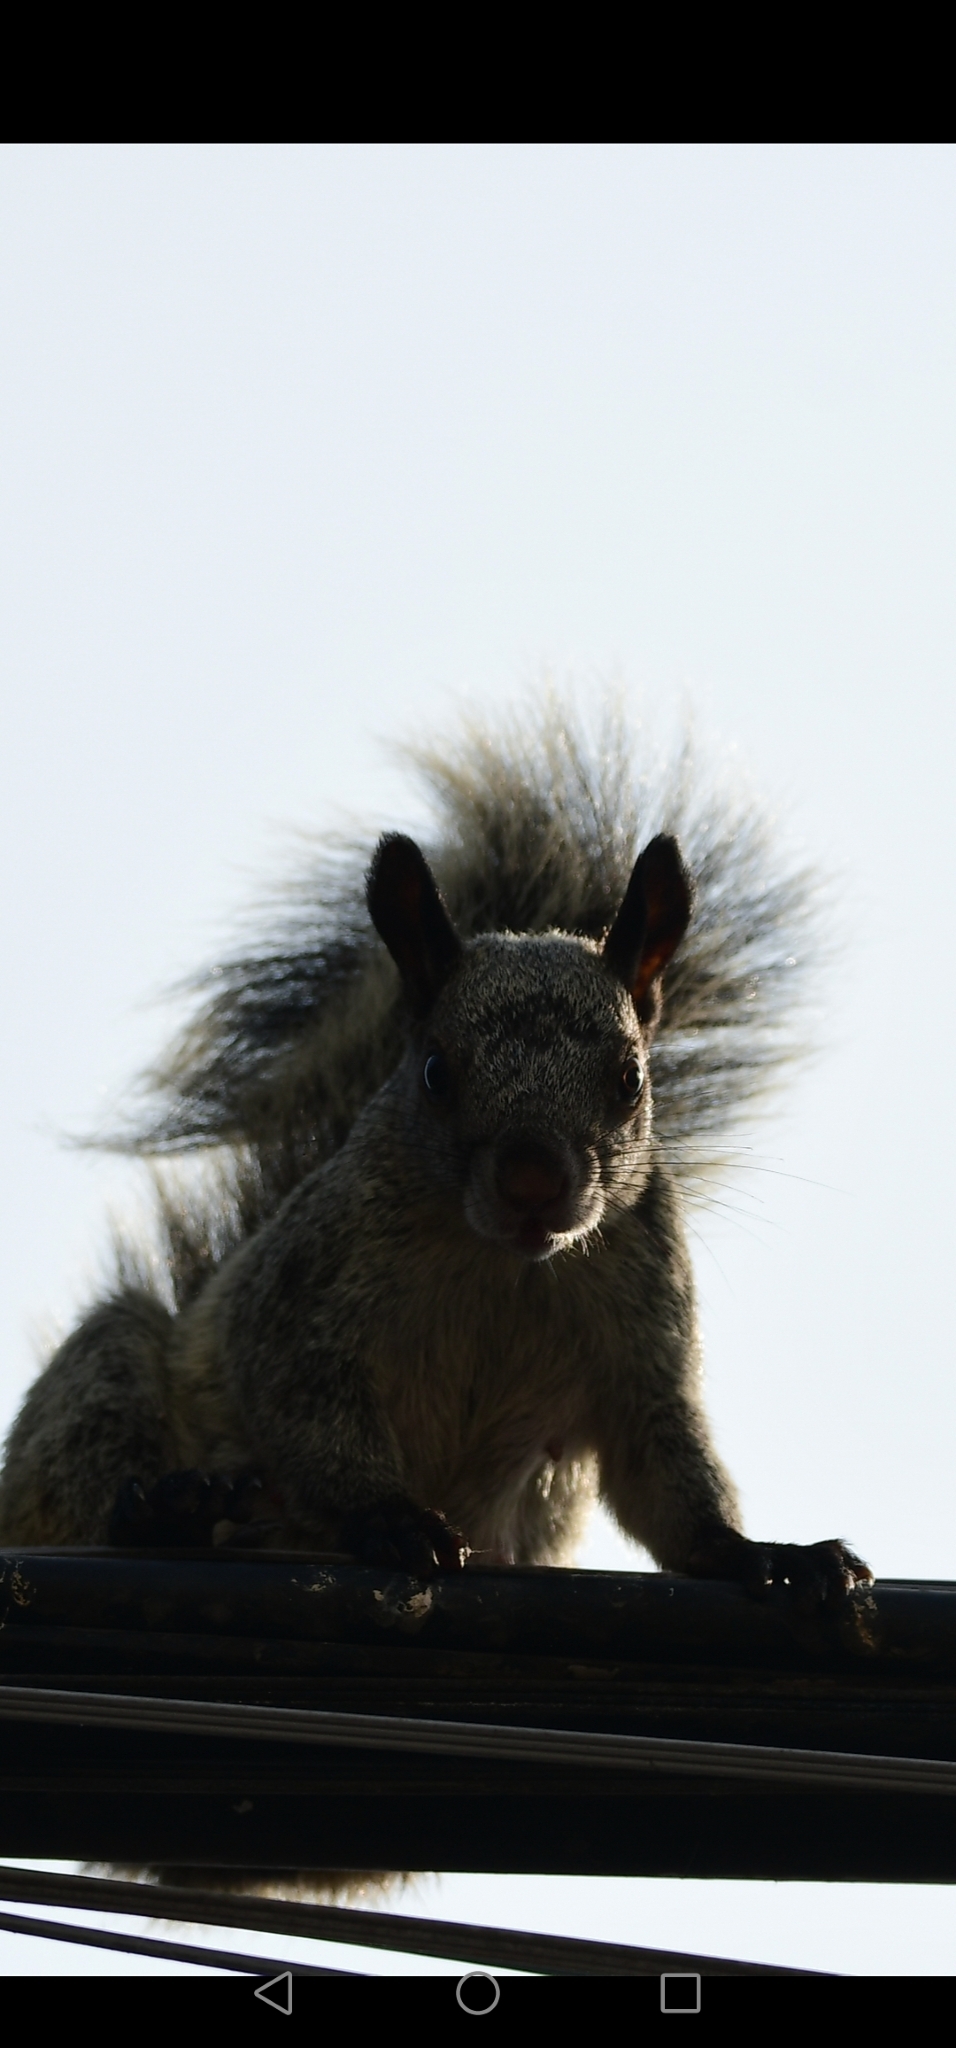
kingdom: Animalia
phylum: Chordata
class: Mammalia
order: Rodentia
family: Sciuridae
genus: Sciurus
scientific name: Sciurus stramineus
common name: Guayaquil squirrel
